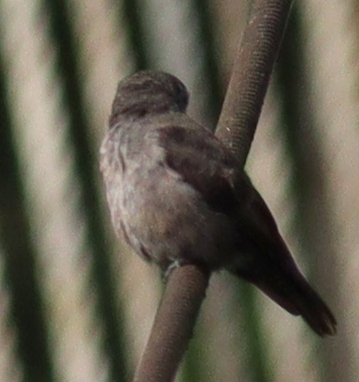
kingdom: Animalia
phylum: Chordata
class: Aves
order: Passeriformes
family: Muscicapidae
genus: Muscicapa
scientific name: Muscicapa ussheri
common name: Ussher's flycatcher
